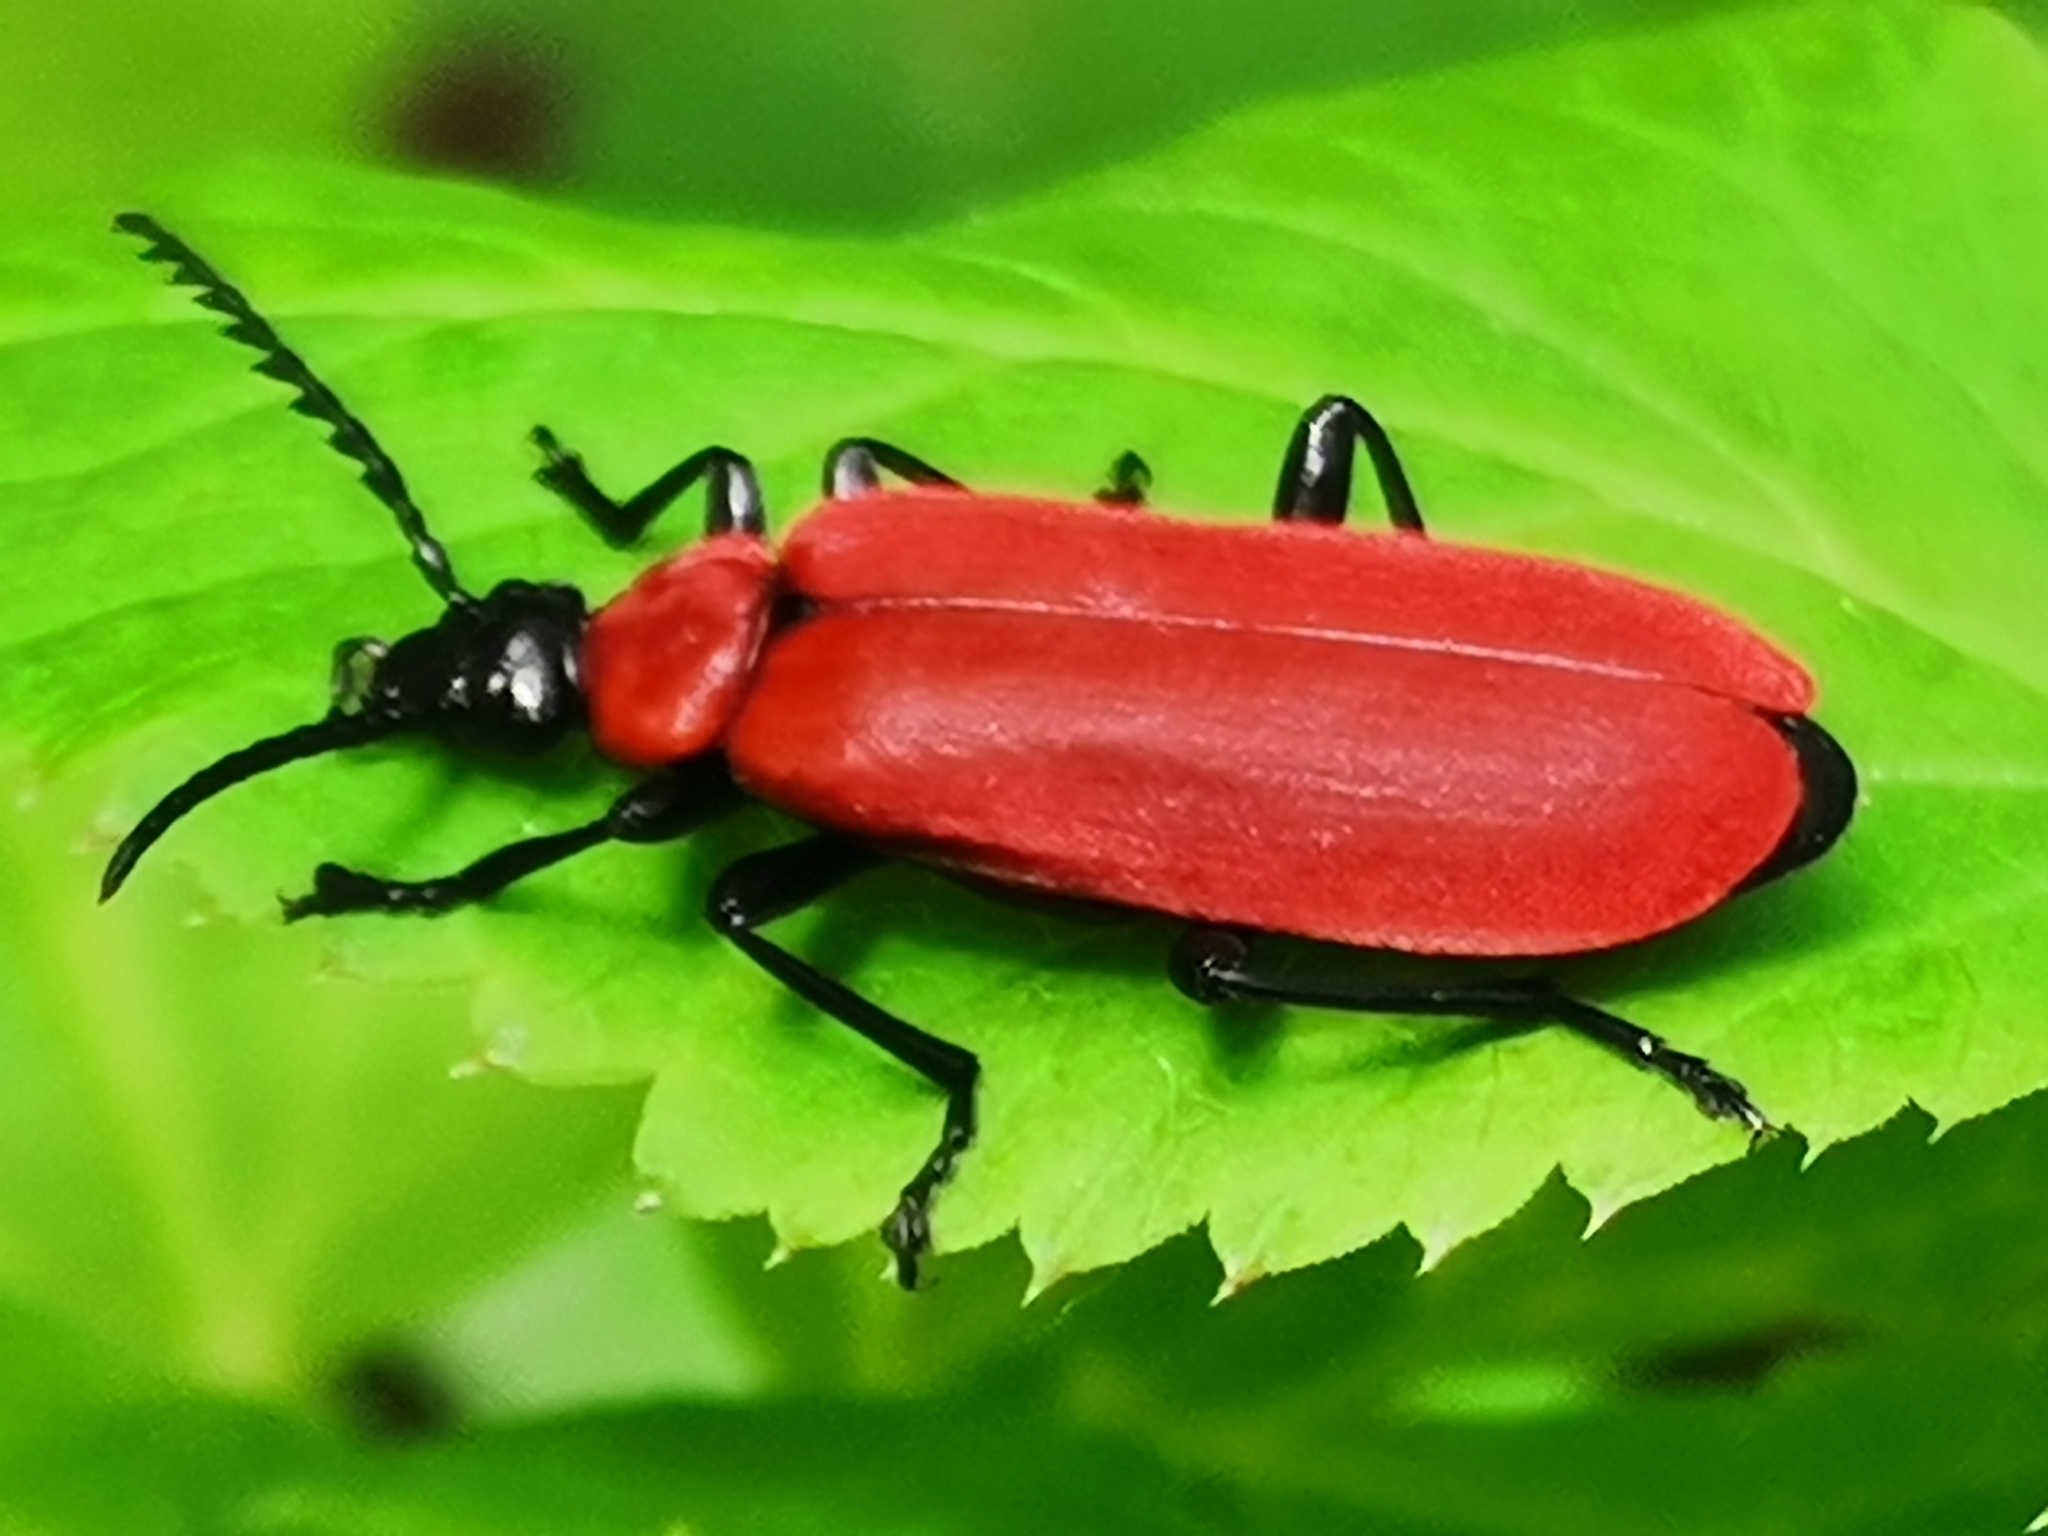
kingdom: Animalia
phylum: Arthropoda
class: Insecta
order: Coleoptera
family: Pyrochroidae
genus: Pyrochroa
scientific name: Pyrochroa coccinea
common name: Black-headed cardinal beetle
